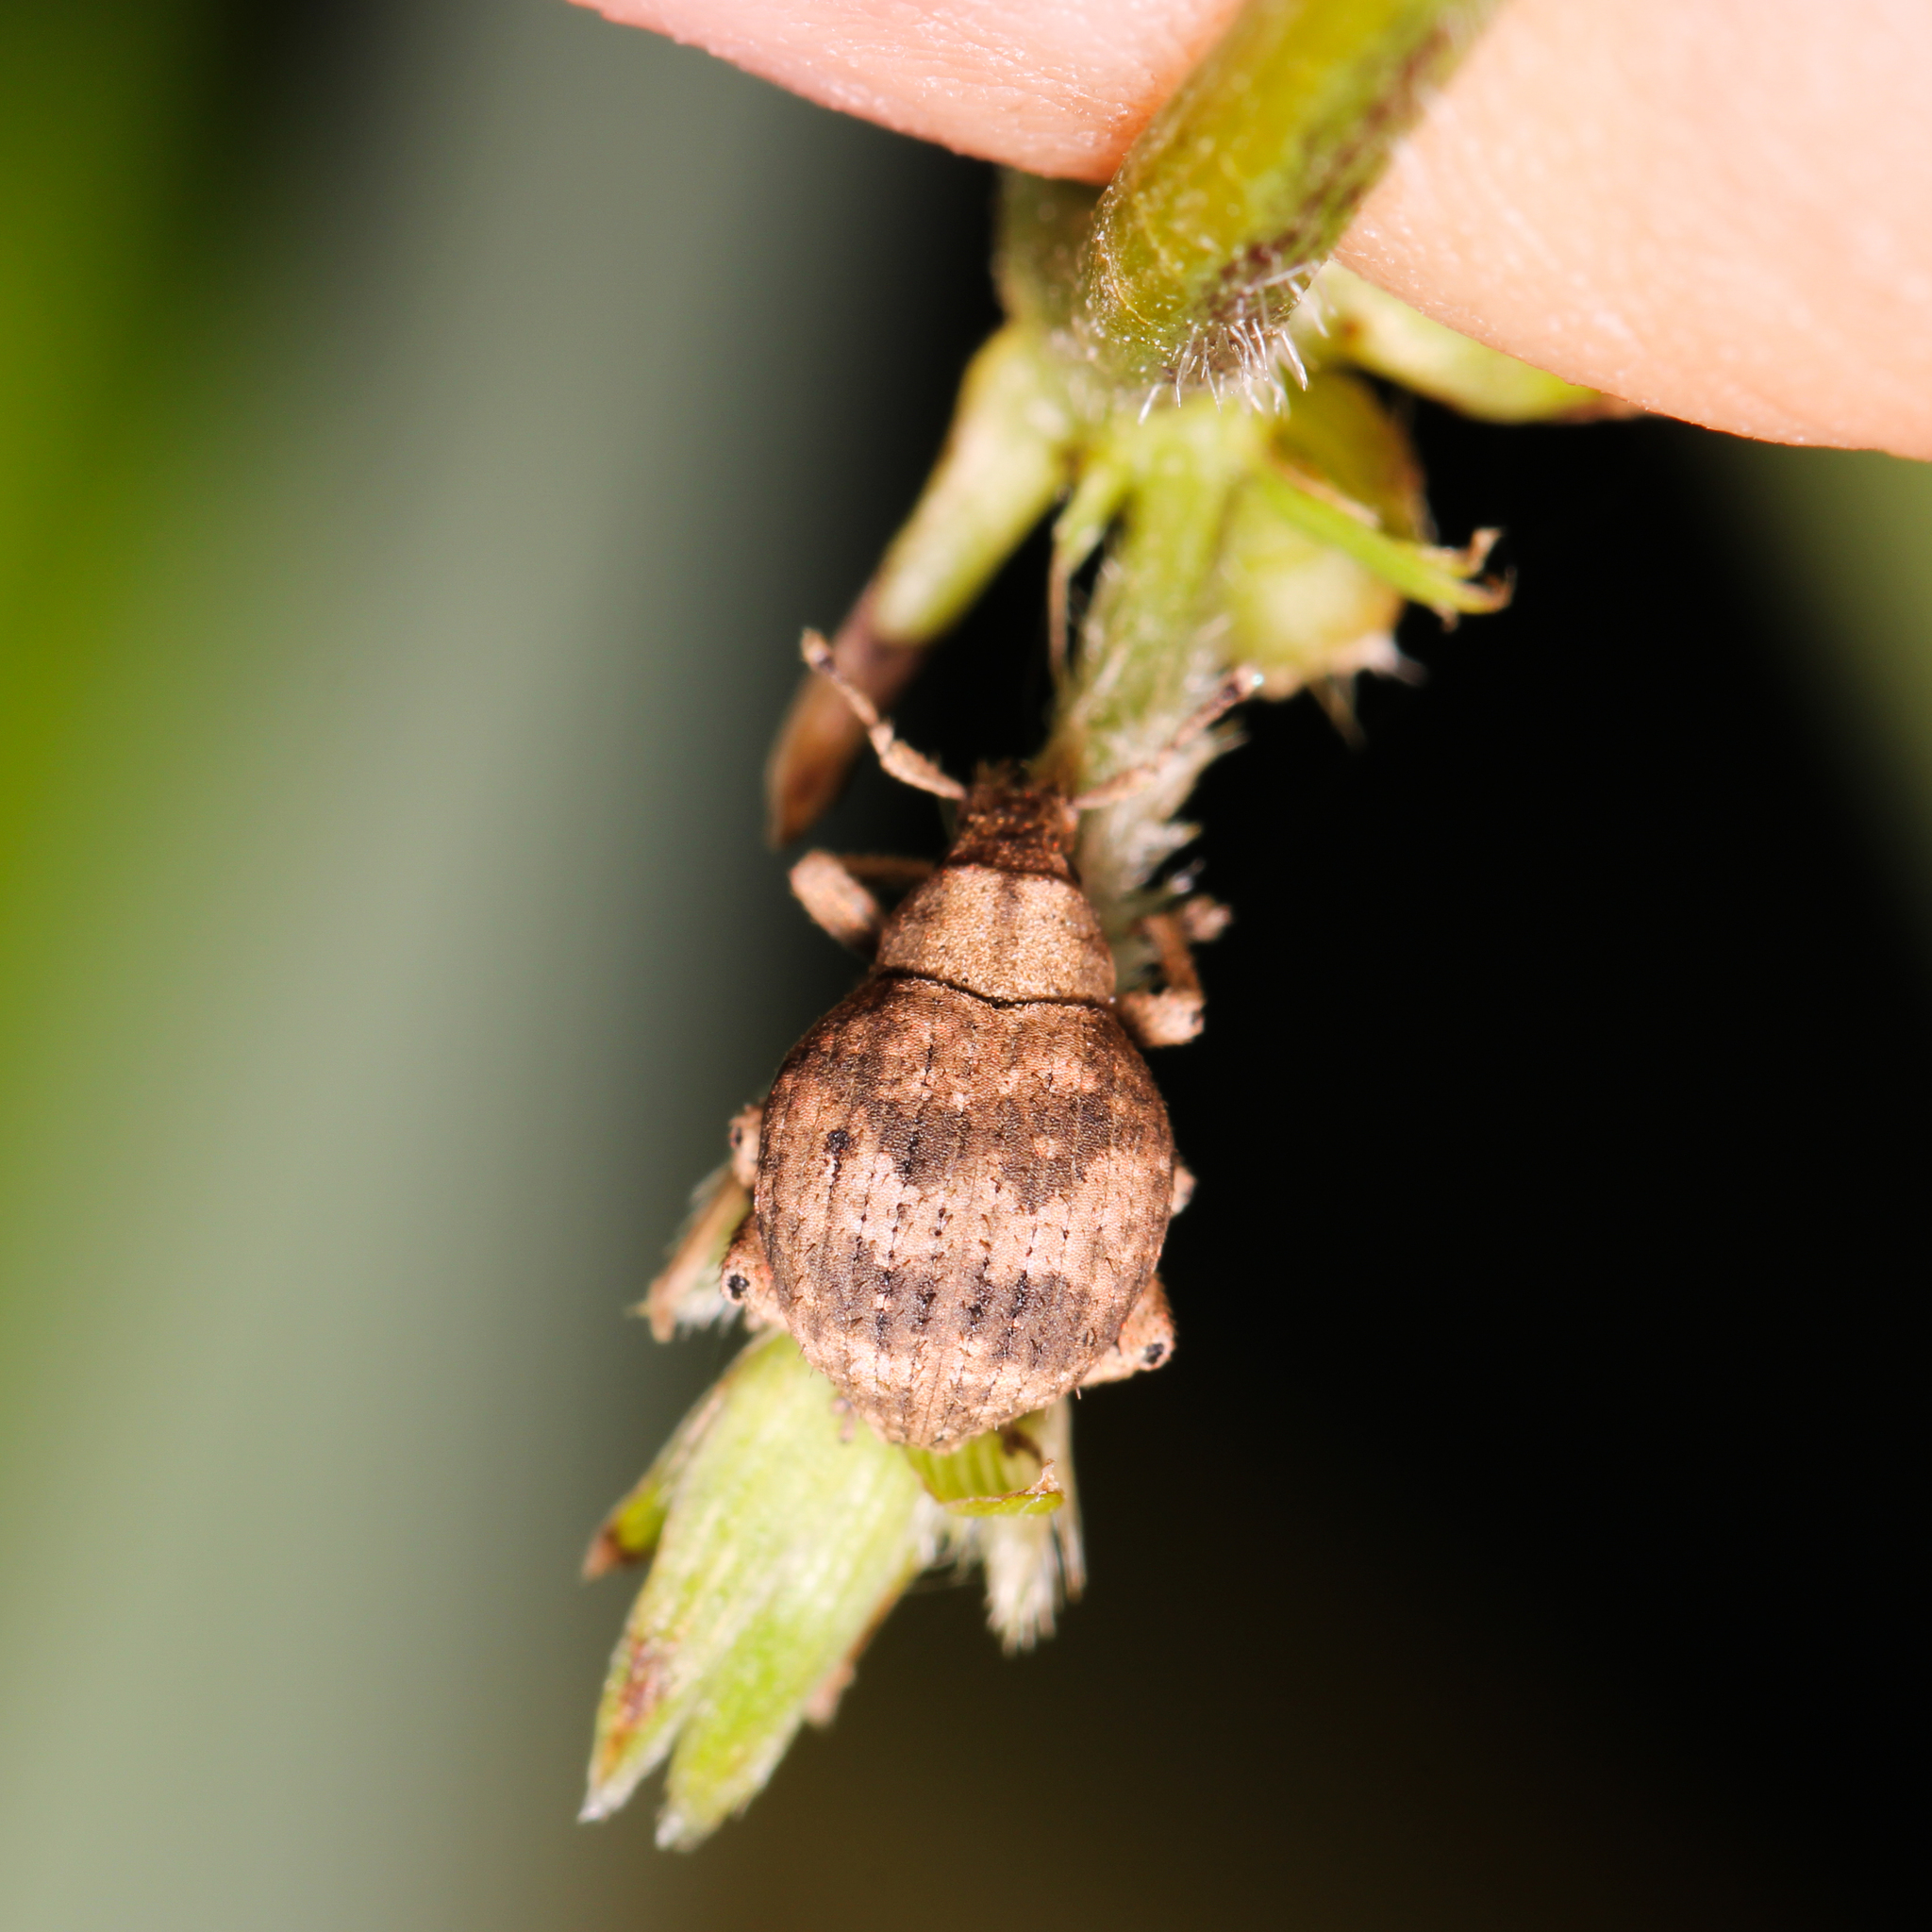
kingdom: Animalia
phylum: Arthropoda
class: Insecta
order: Coleoptera
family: Curculionidae
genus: Pseudocneorhinus
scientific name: Pseudocneorhinus bifasciatus
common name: Two-banded japanese weevil
